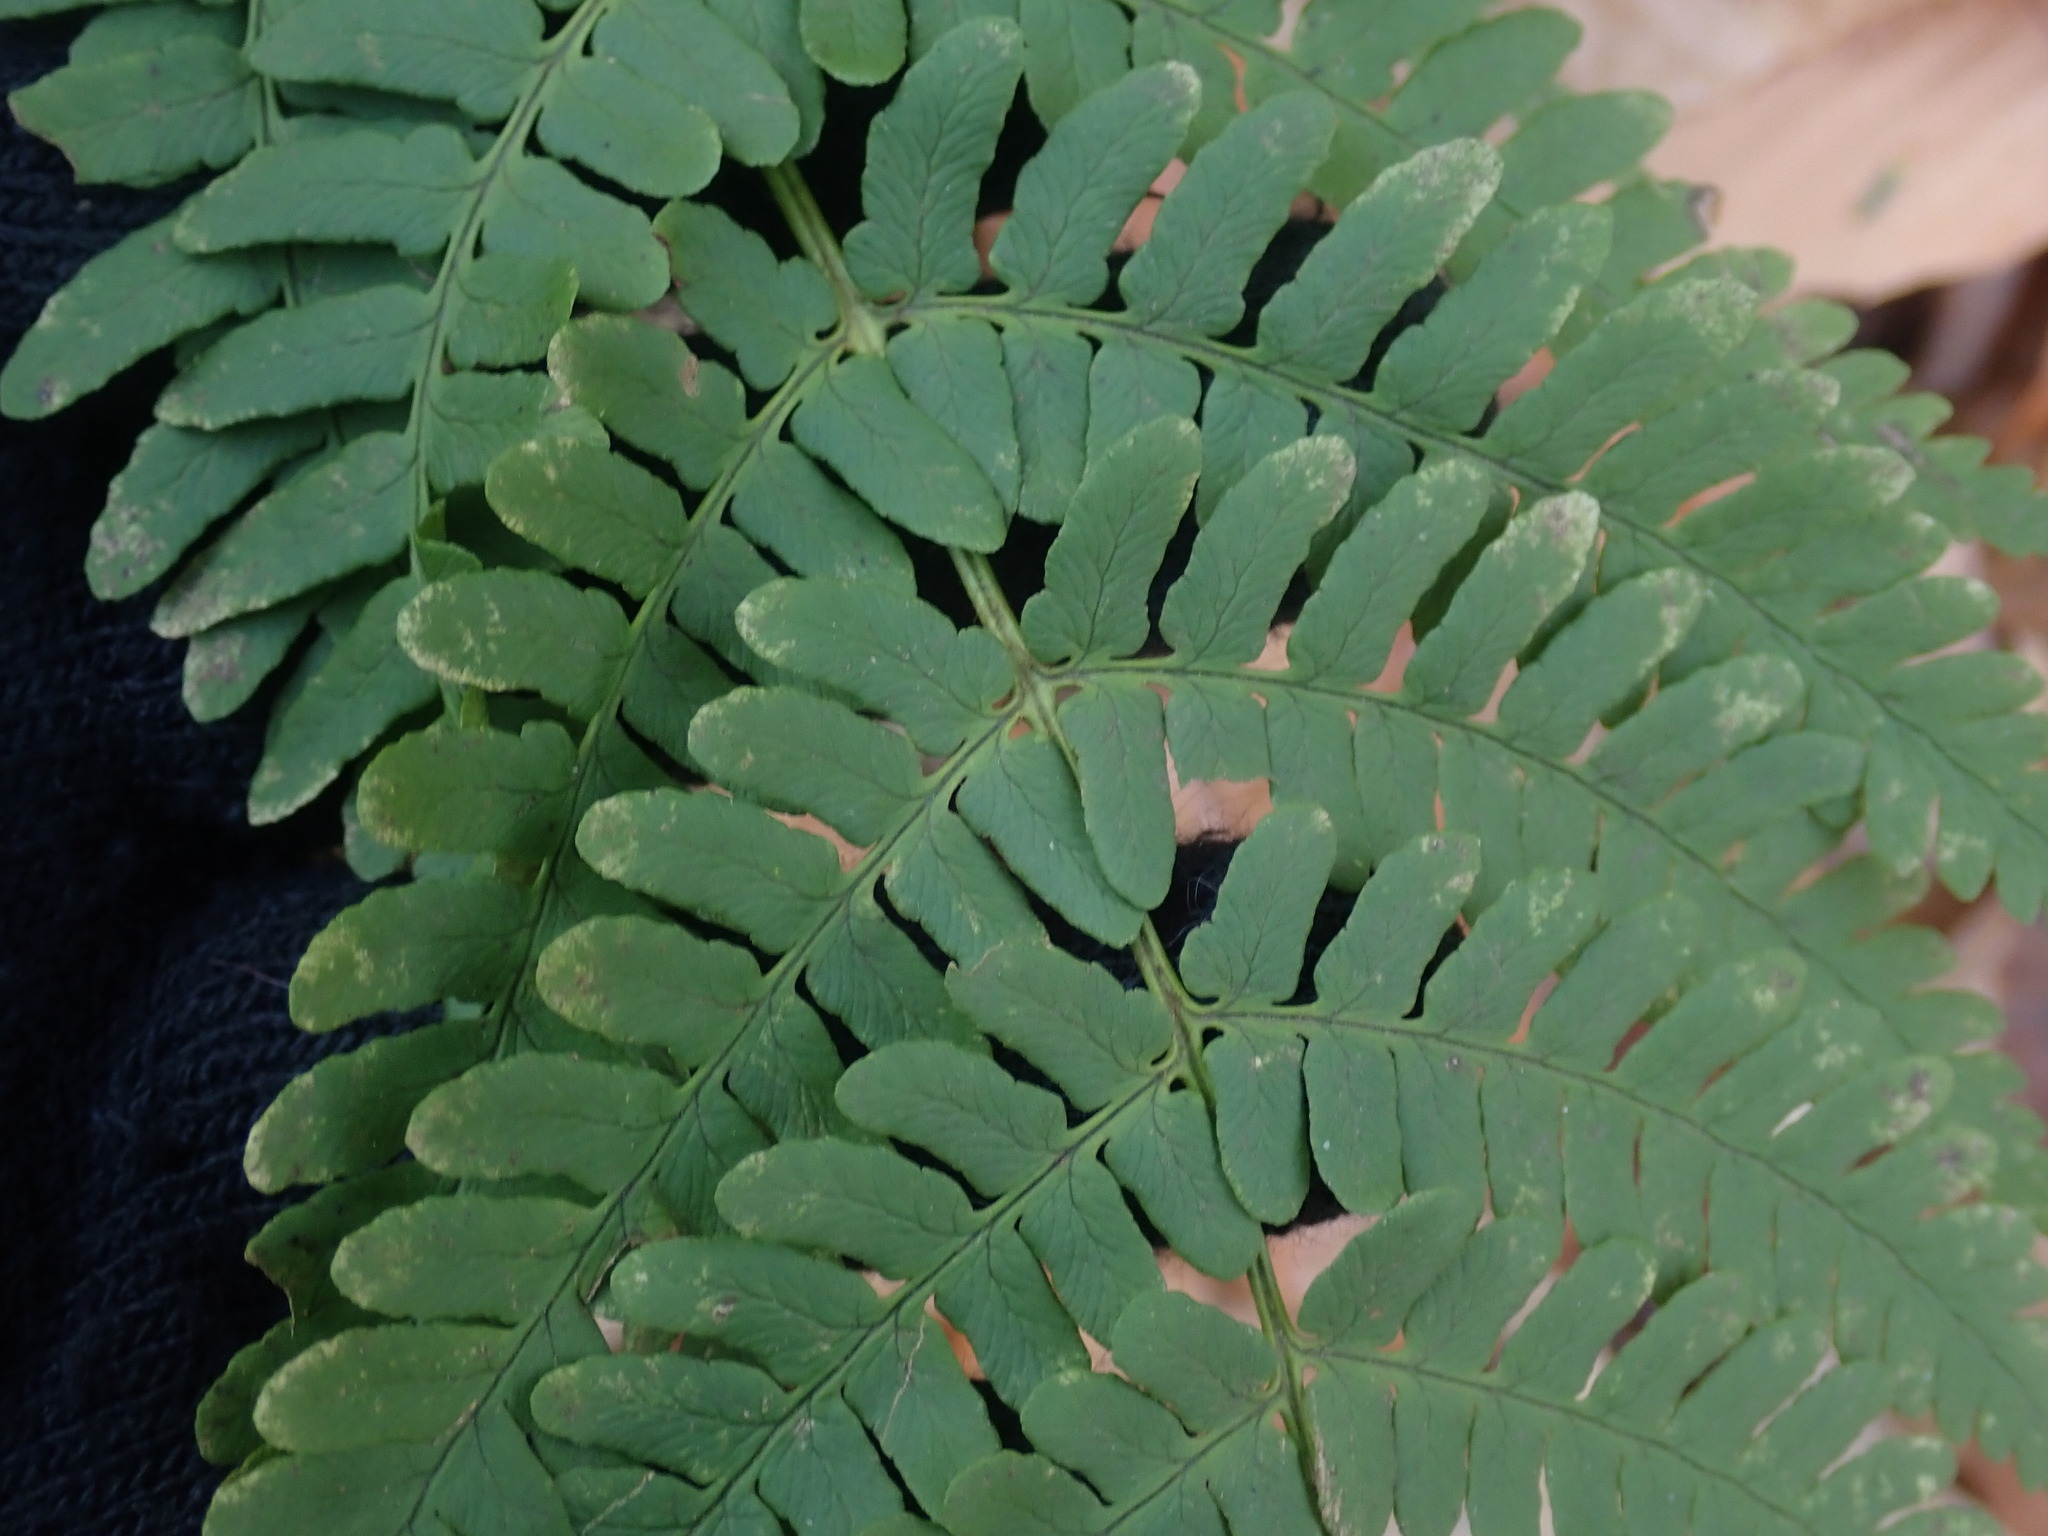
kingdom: Plantae
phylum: Tracheophyta
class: Polypodiopsida
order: Polypodiales
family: Dryopteridaceae
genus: Dryopteris
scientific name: Dryopteris marginalis
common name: Marginal wood fern
